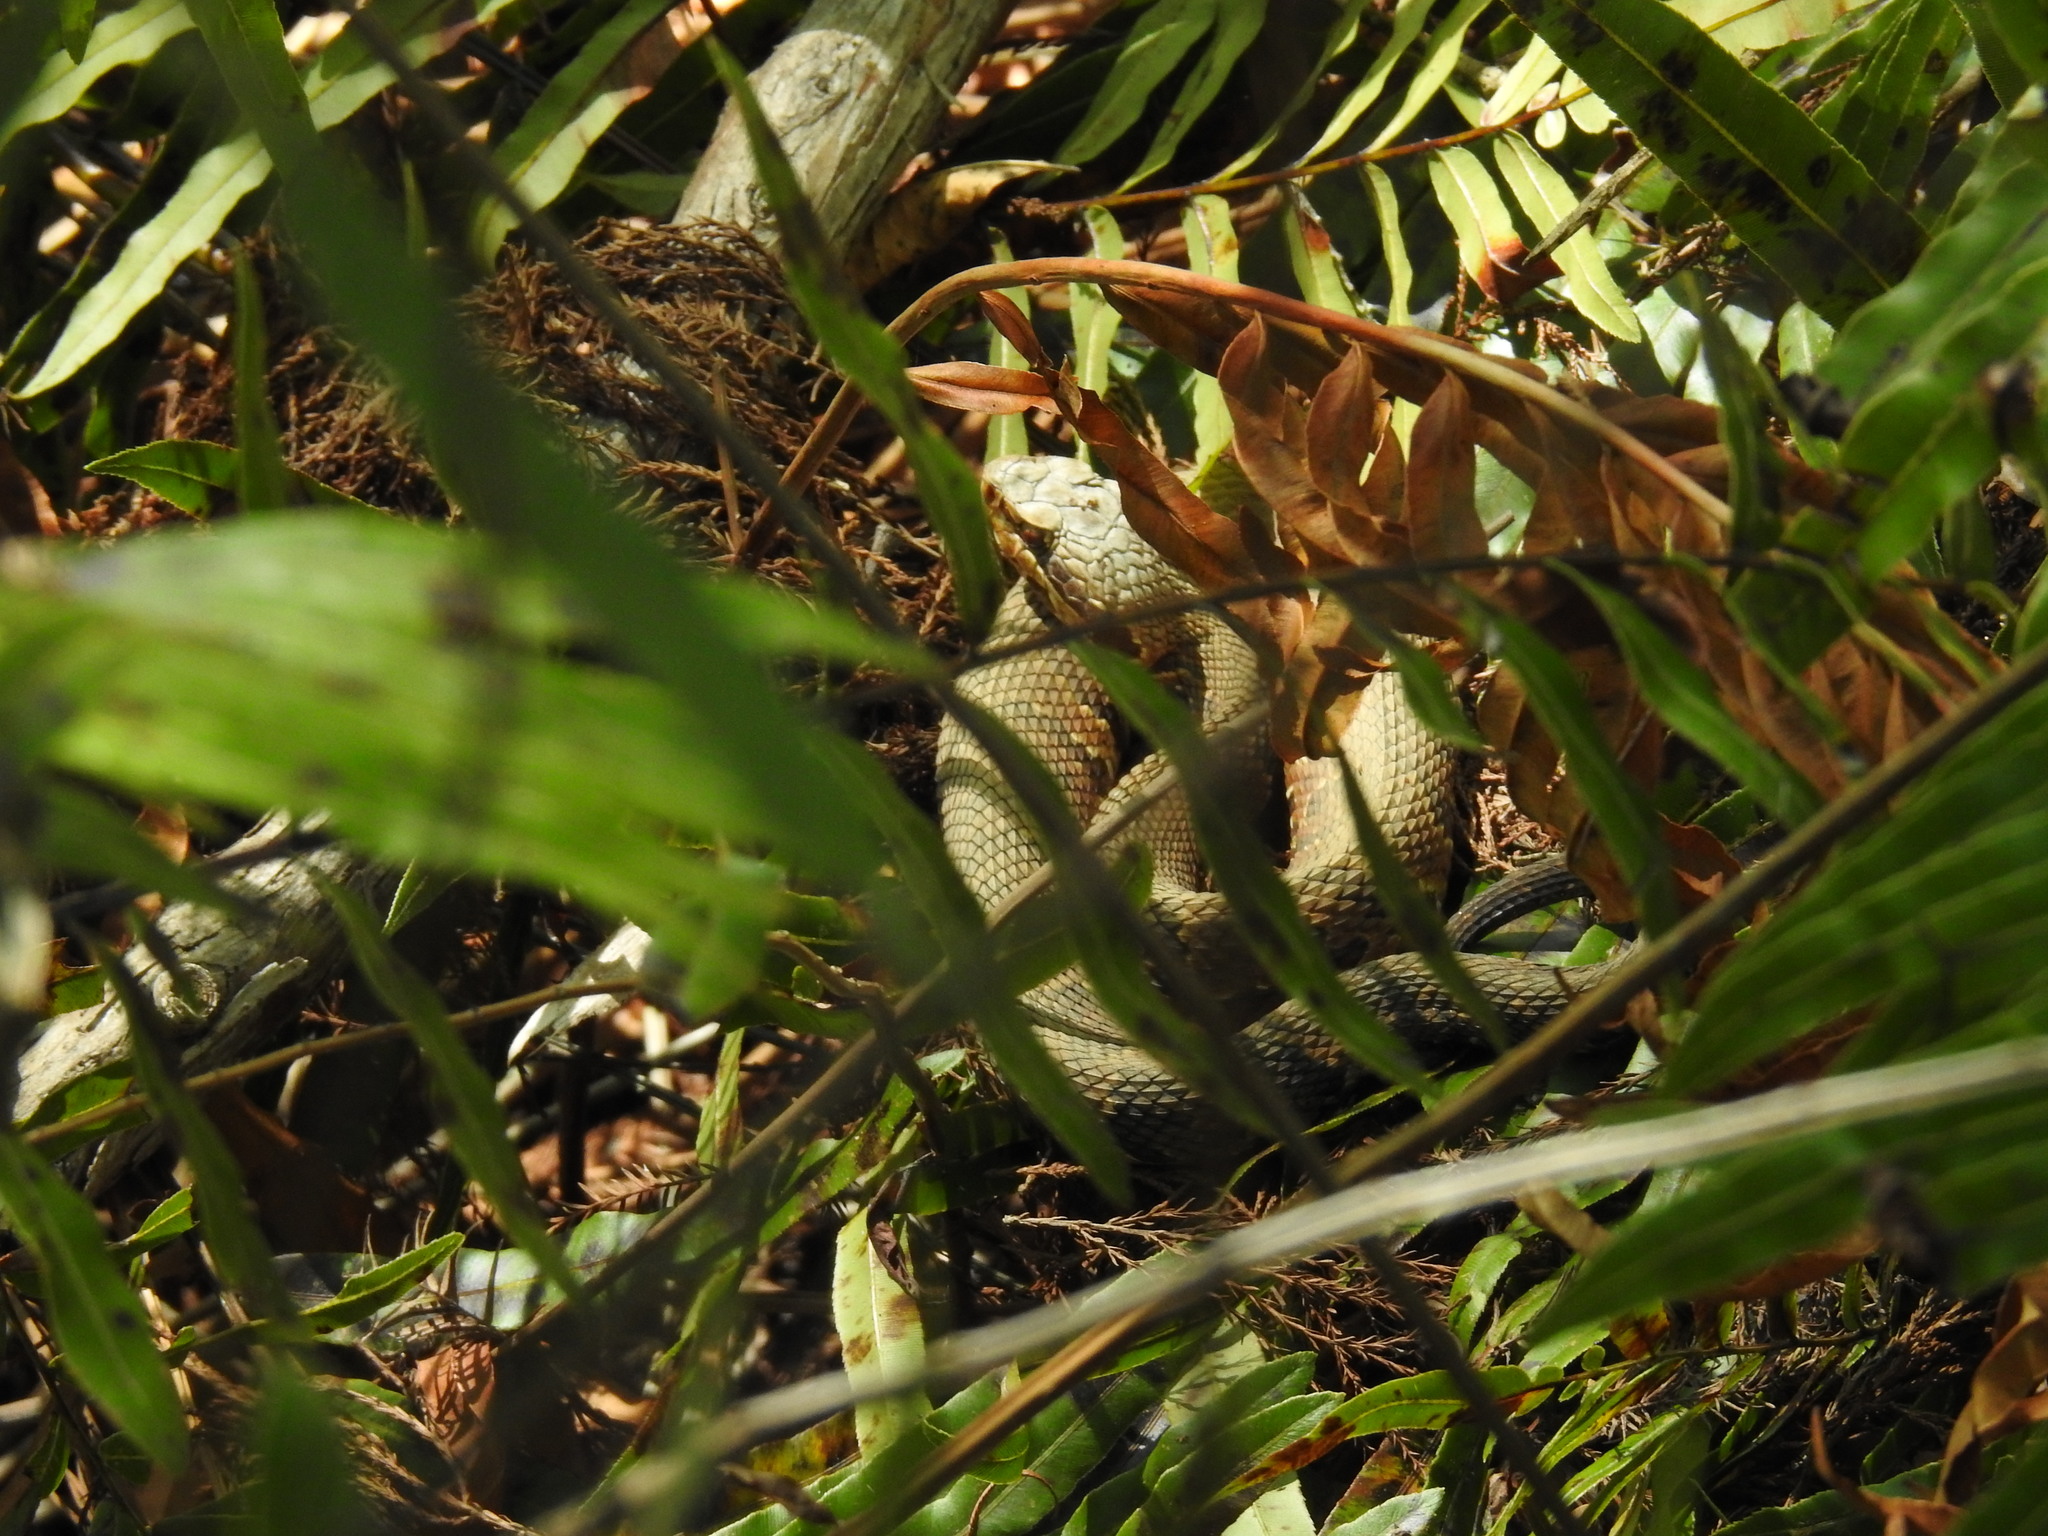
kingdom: Animalia
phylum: Chordata
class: Squamata
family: Viperidae
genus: Agkistrodon
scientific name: Agkistrodon conanti
